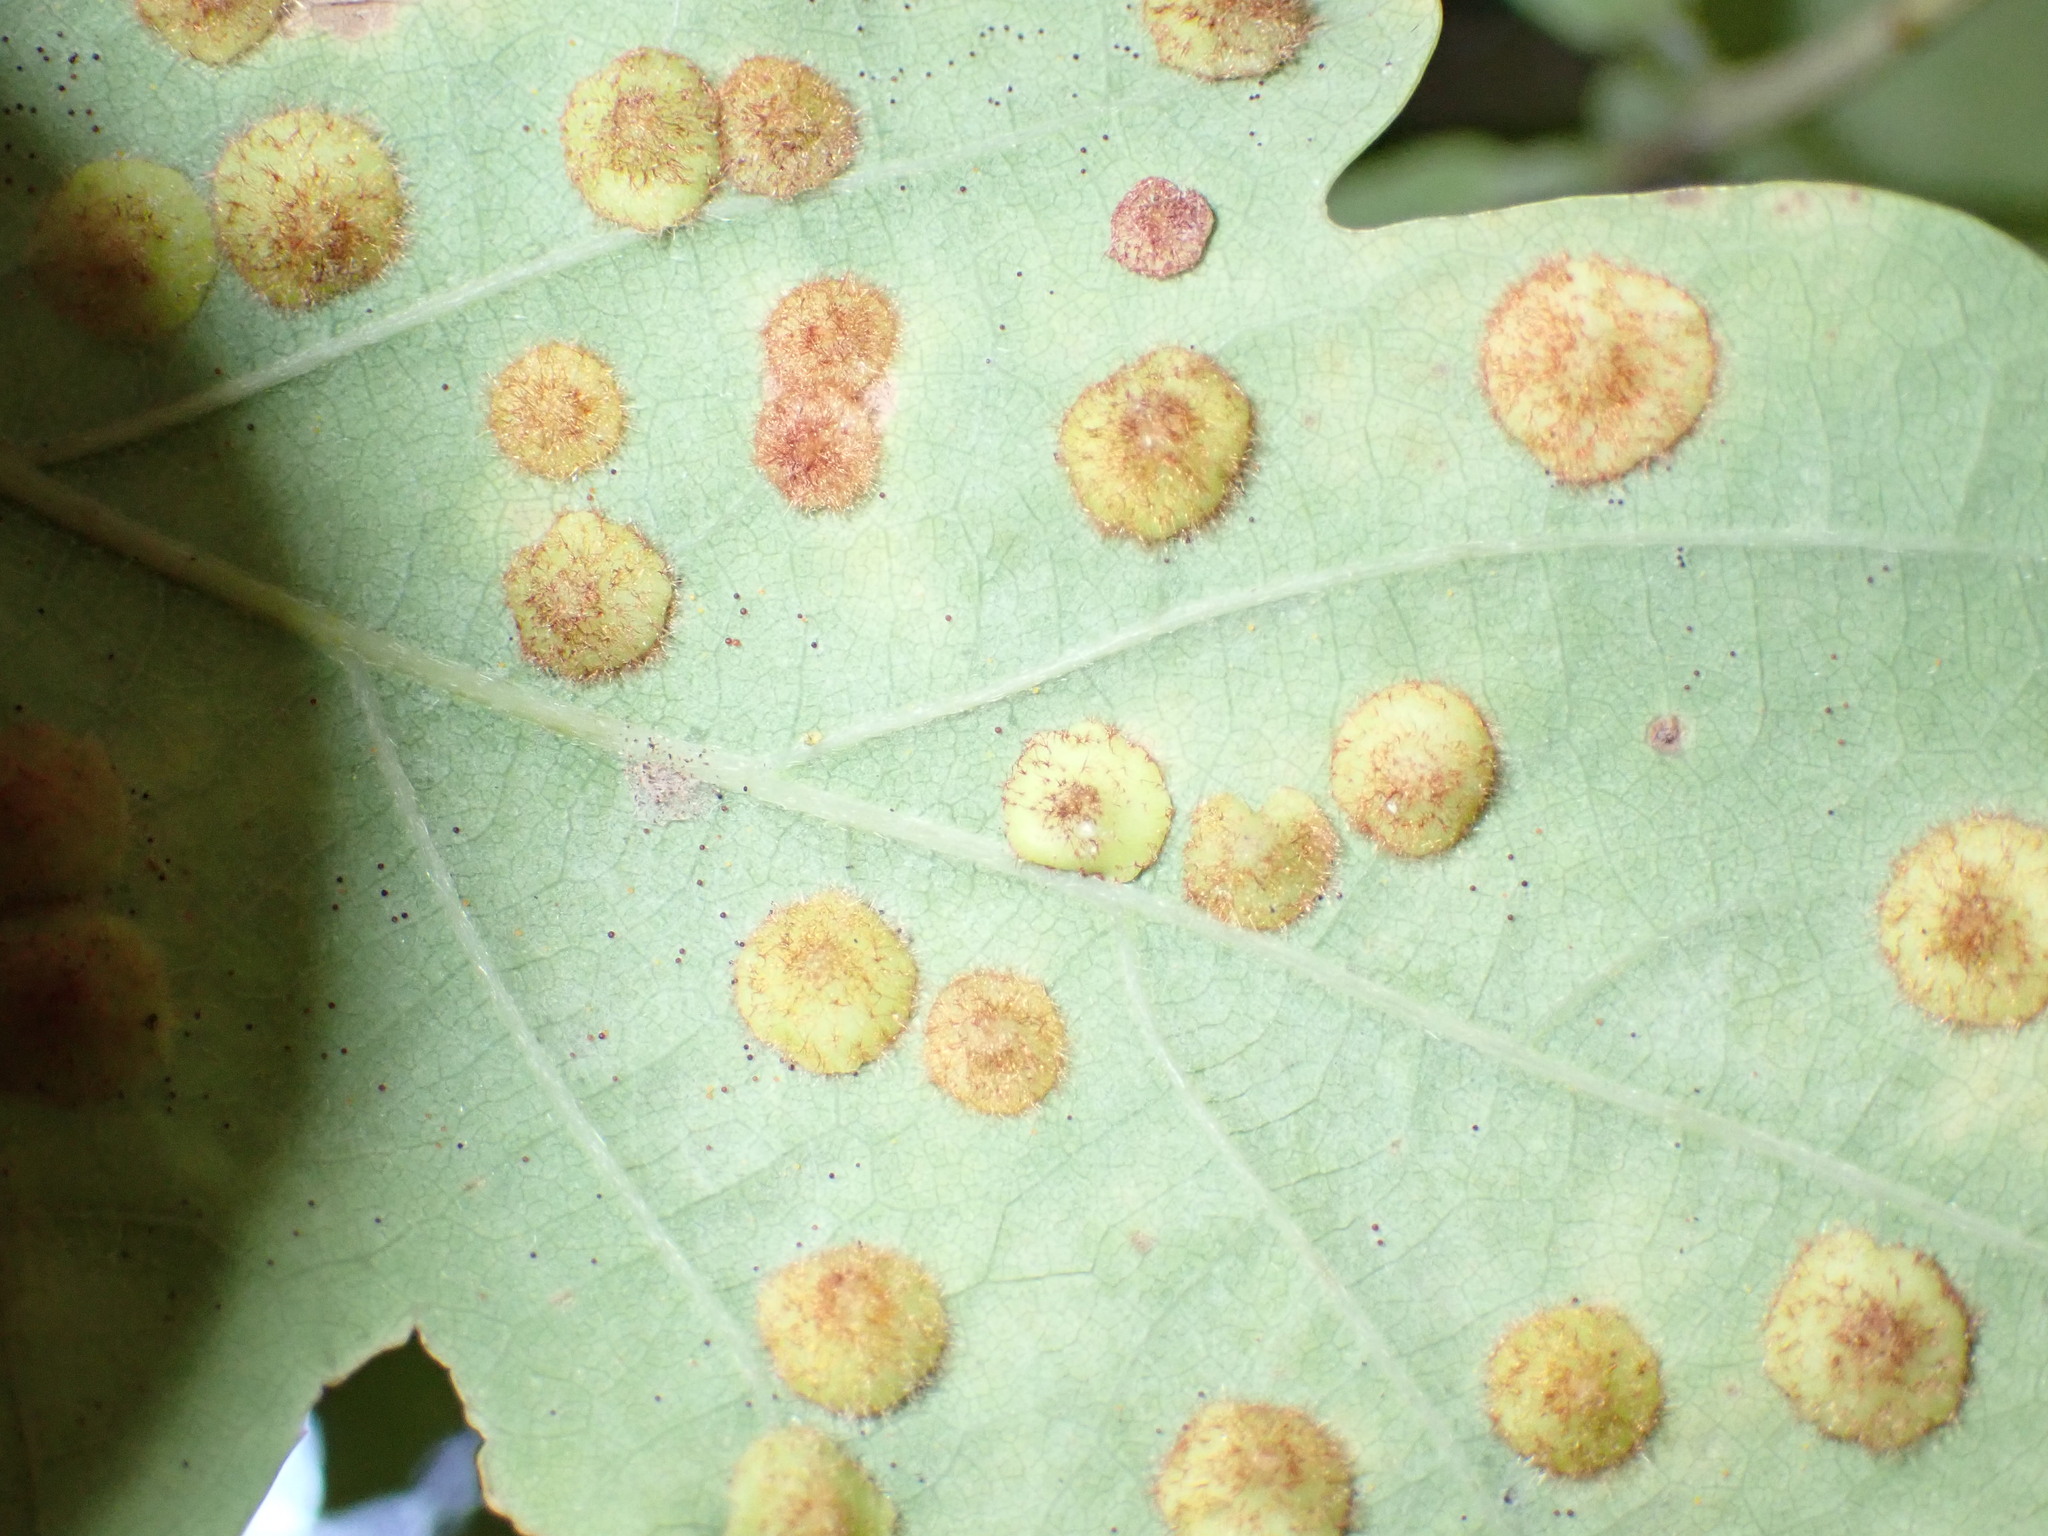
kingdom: Animalia
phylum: Arthropoda
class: Insecta
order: Hymenoptera
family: Cynipidae
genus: Neuroterus
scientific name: Neuroterus quercusbaccarum
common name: Common spangle gall
